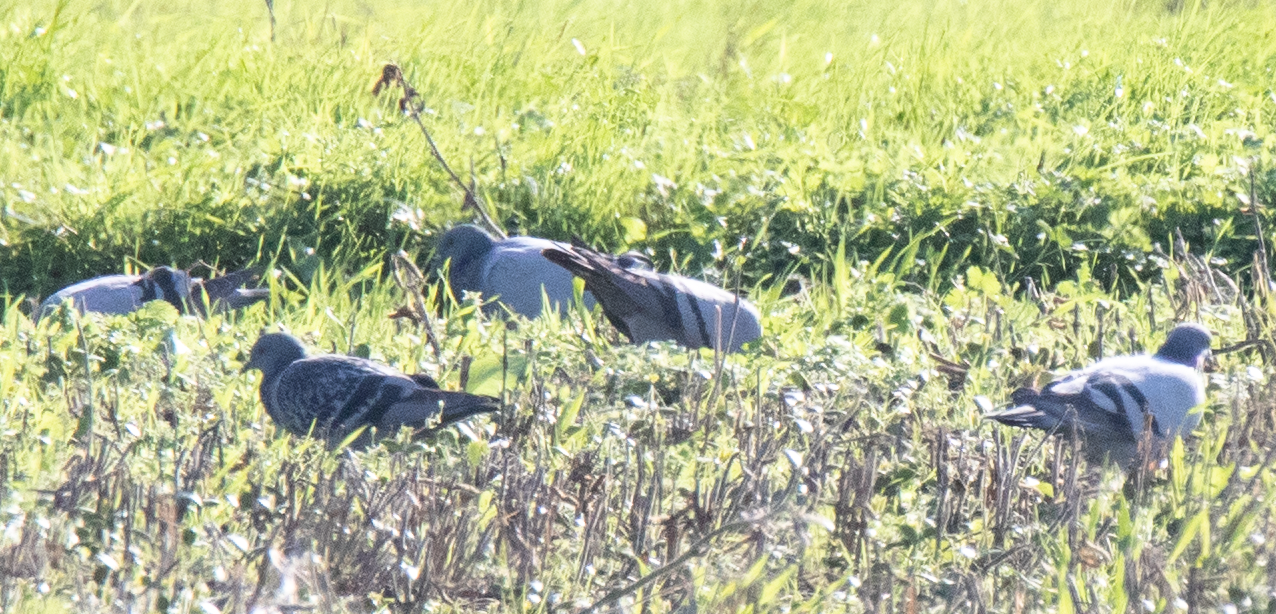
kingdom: Animalia
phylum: Chordata
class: Aves
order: Columbiformes
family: Columbidae
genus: Columba
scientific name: Columba livia
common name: Rock pigeon
